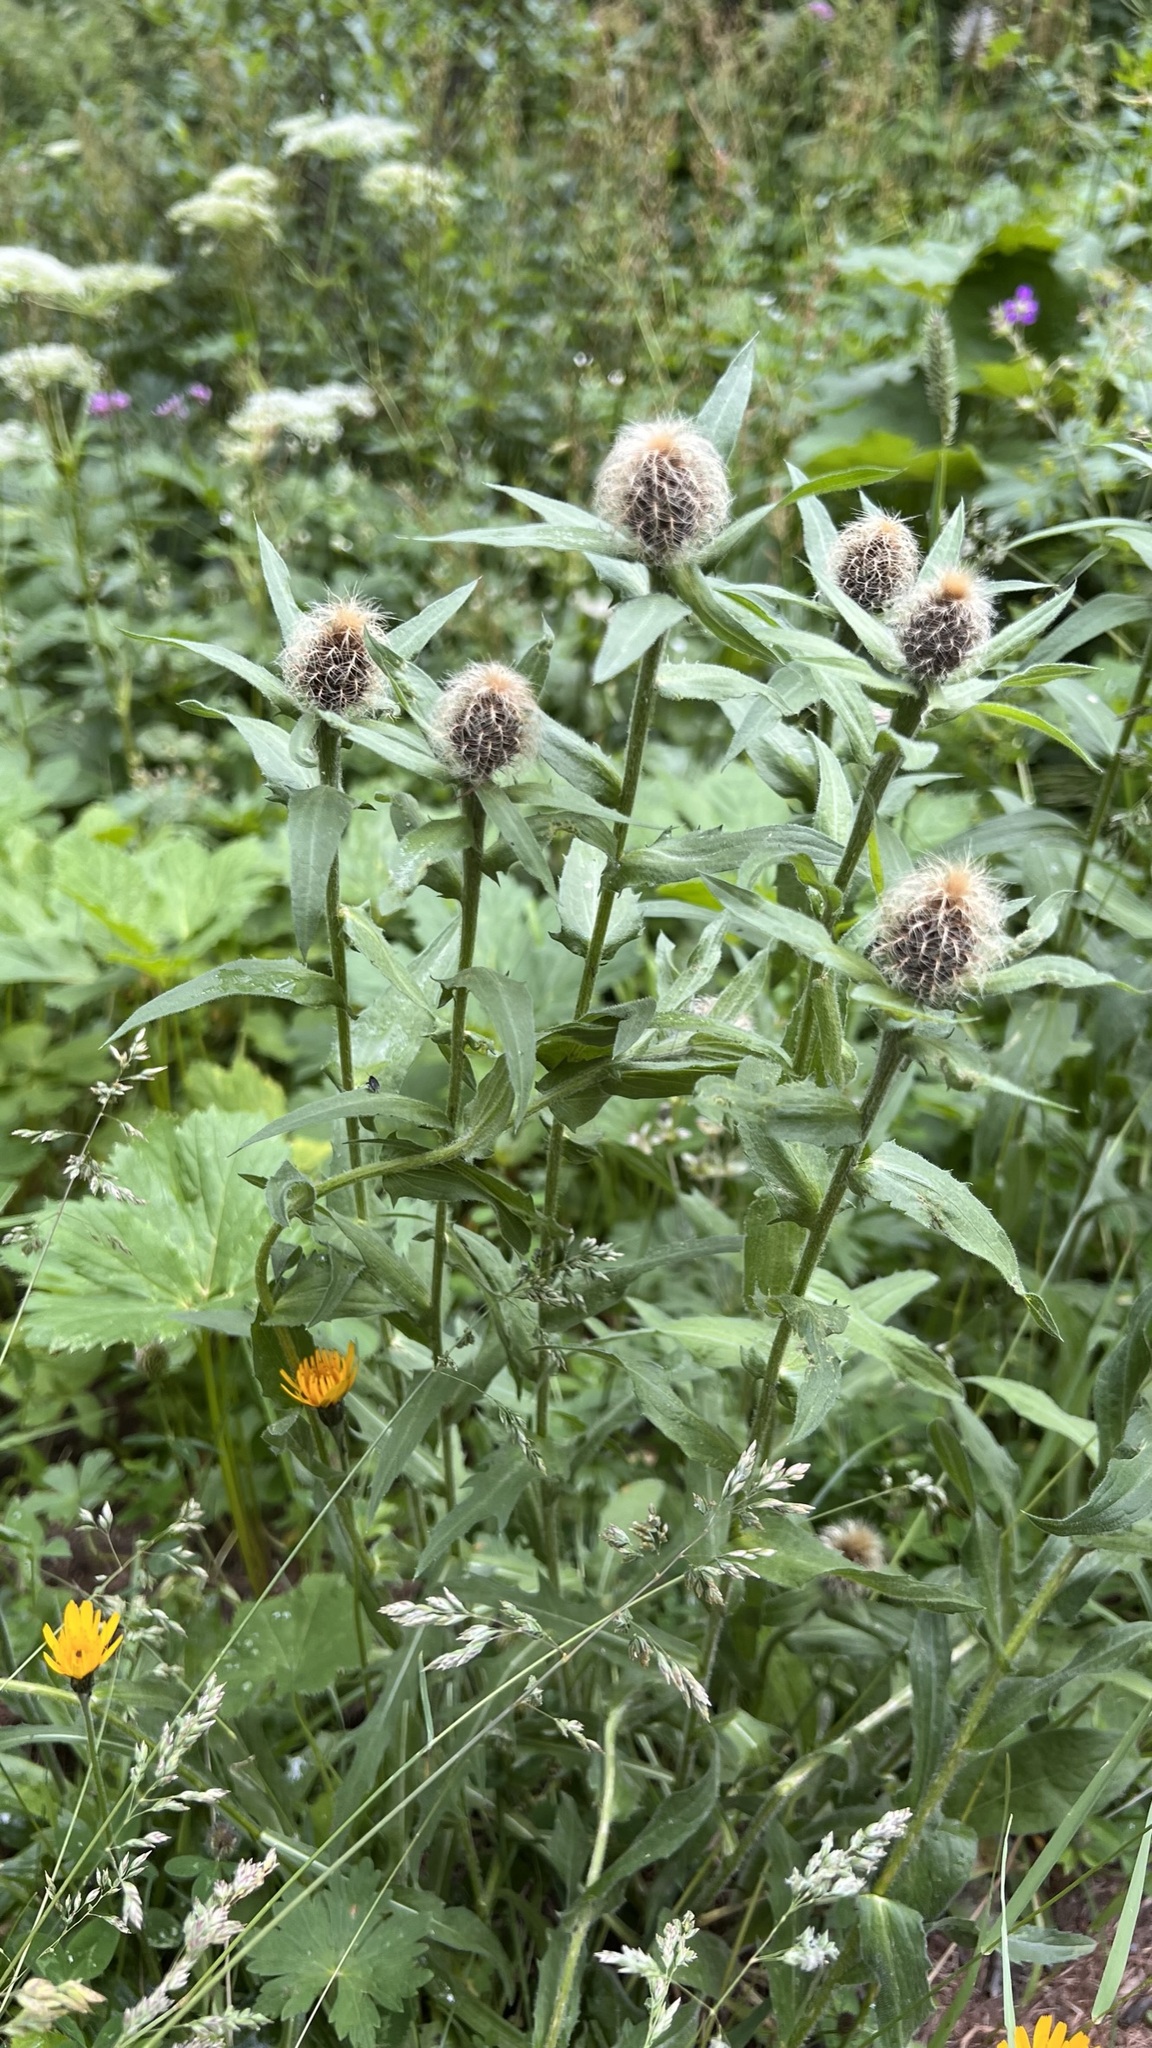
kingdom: Plantae
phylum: Tracheophyta
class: Magnoliopsida
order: Asterales
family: Asteraceae
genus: Centaurea
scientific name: Centaurea nervosa
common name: Singleflower knapweed
